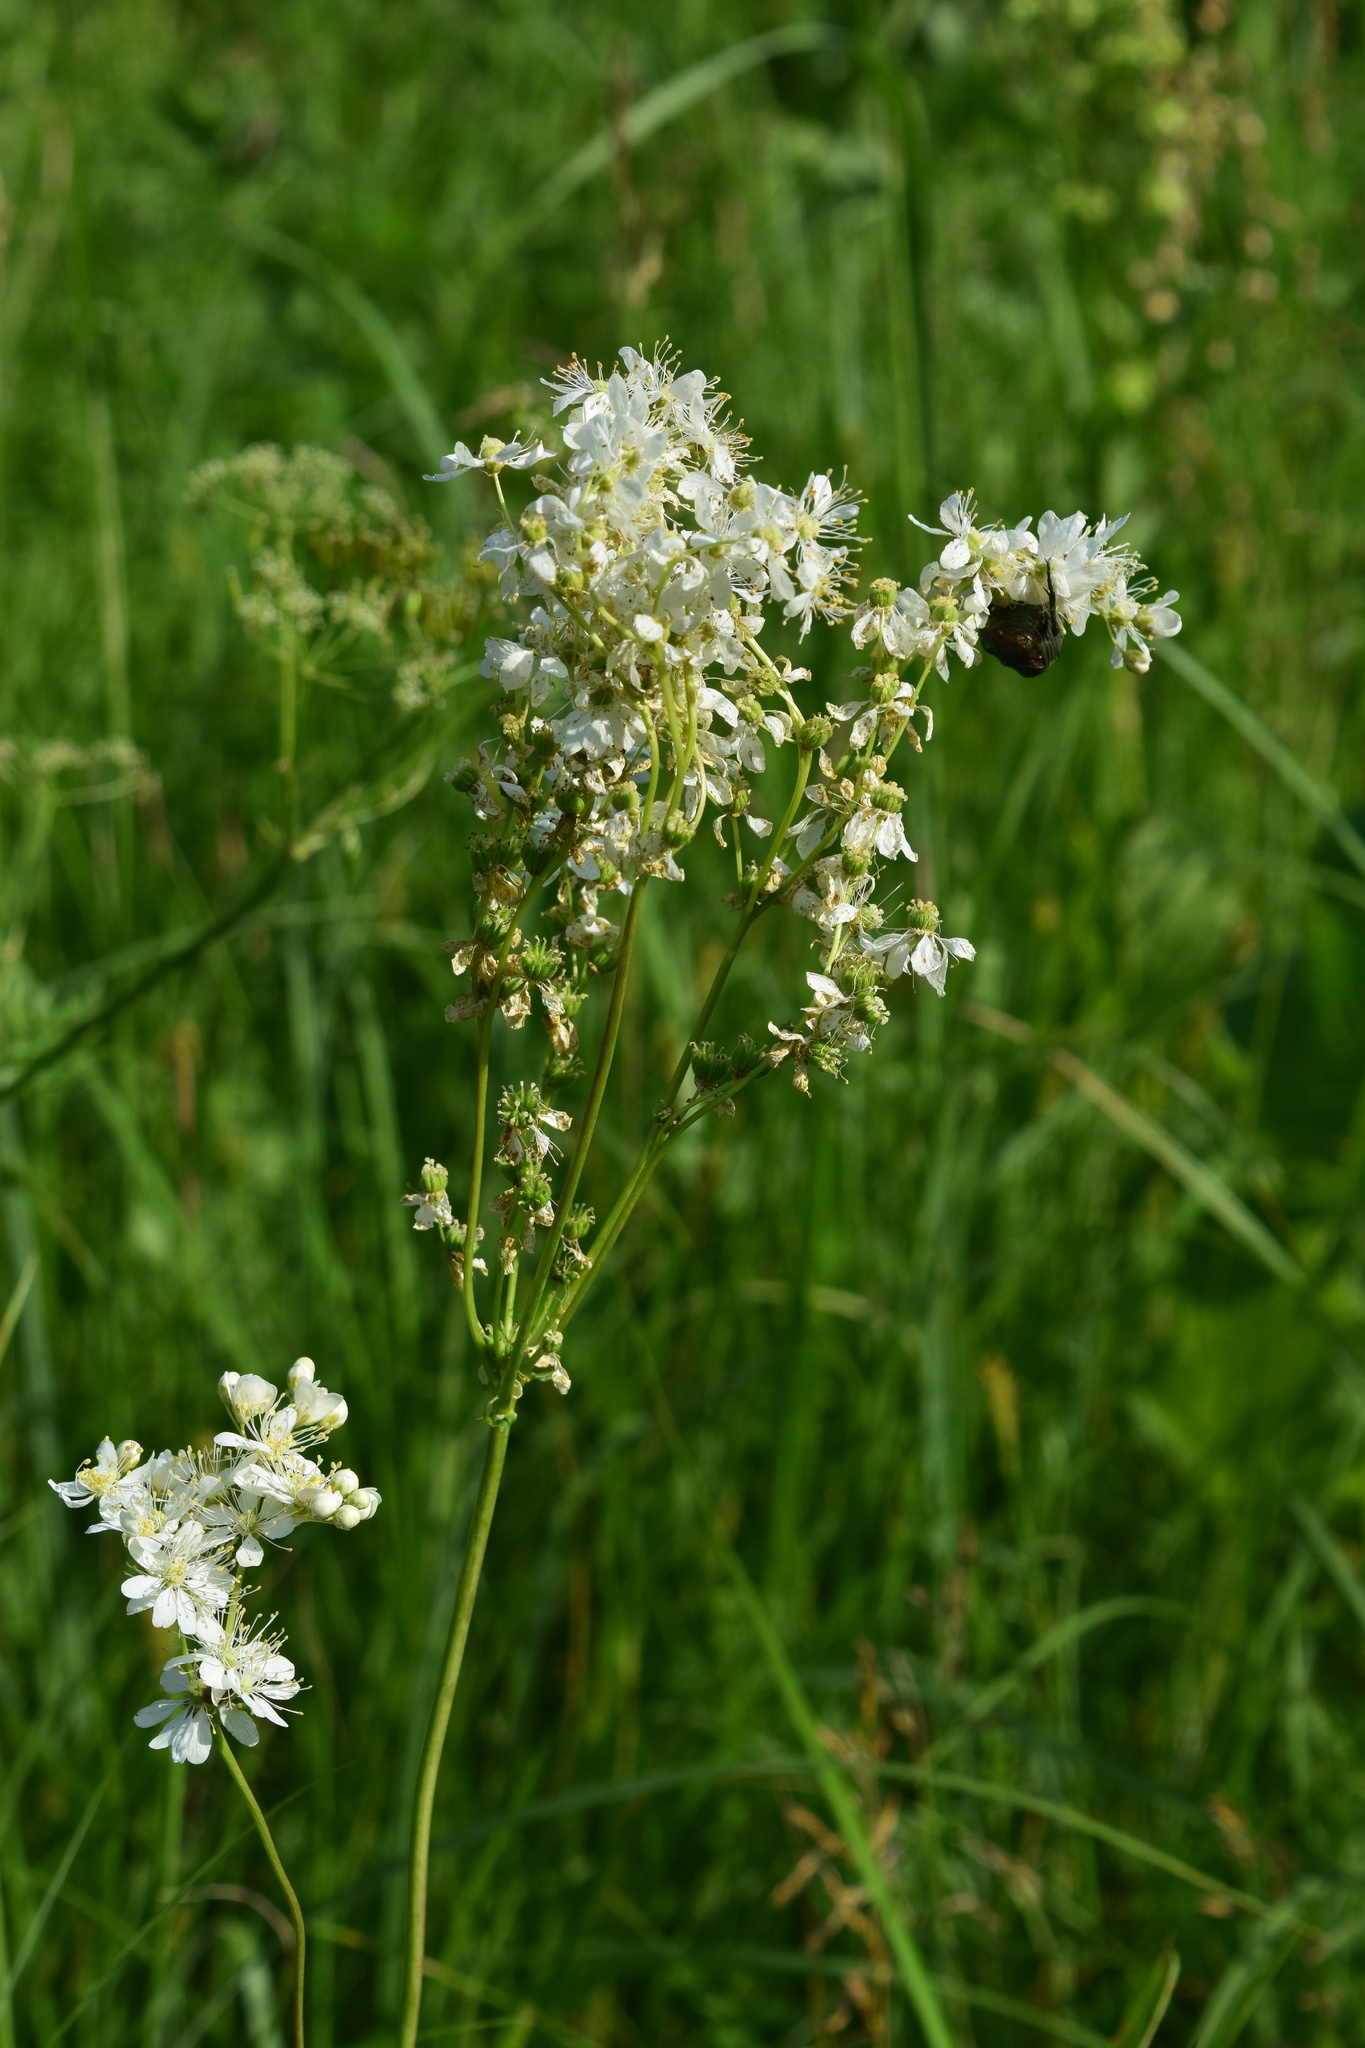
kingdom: Plantae
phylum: Tracheophyta
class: Magnoliopsida
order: Rosales
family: Rosaceae
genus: Filipendula
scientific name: Filipendula vulgaris
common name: Dropwort
